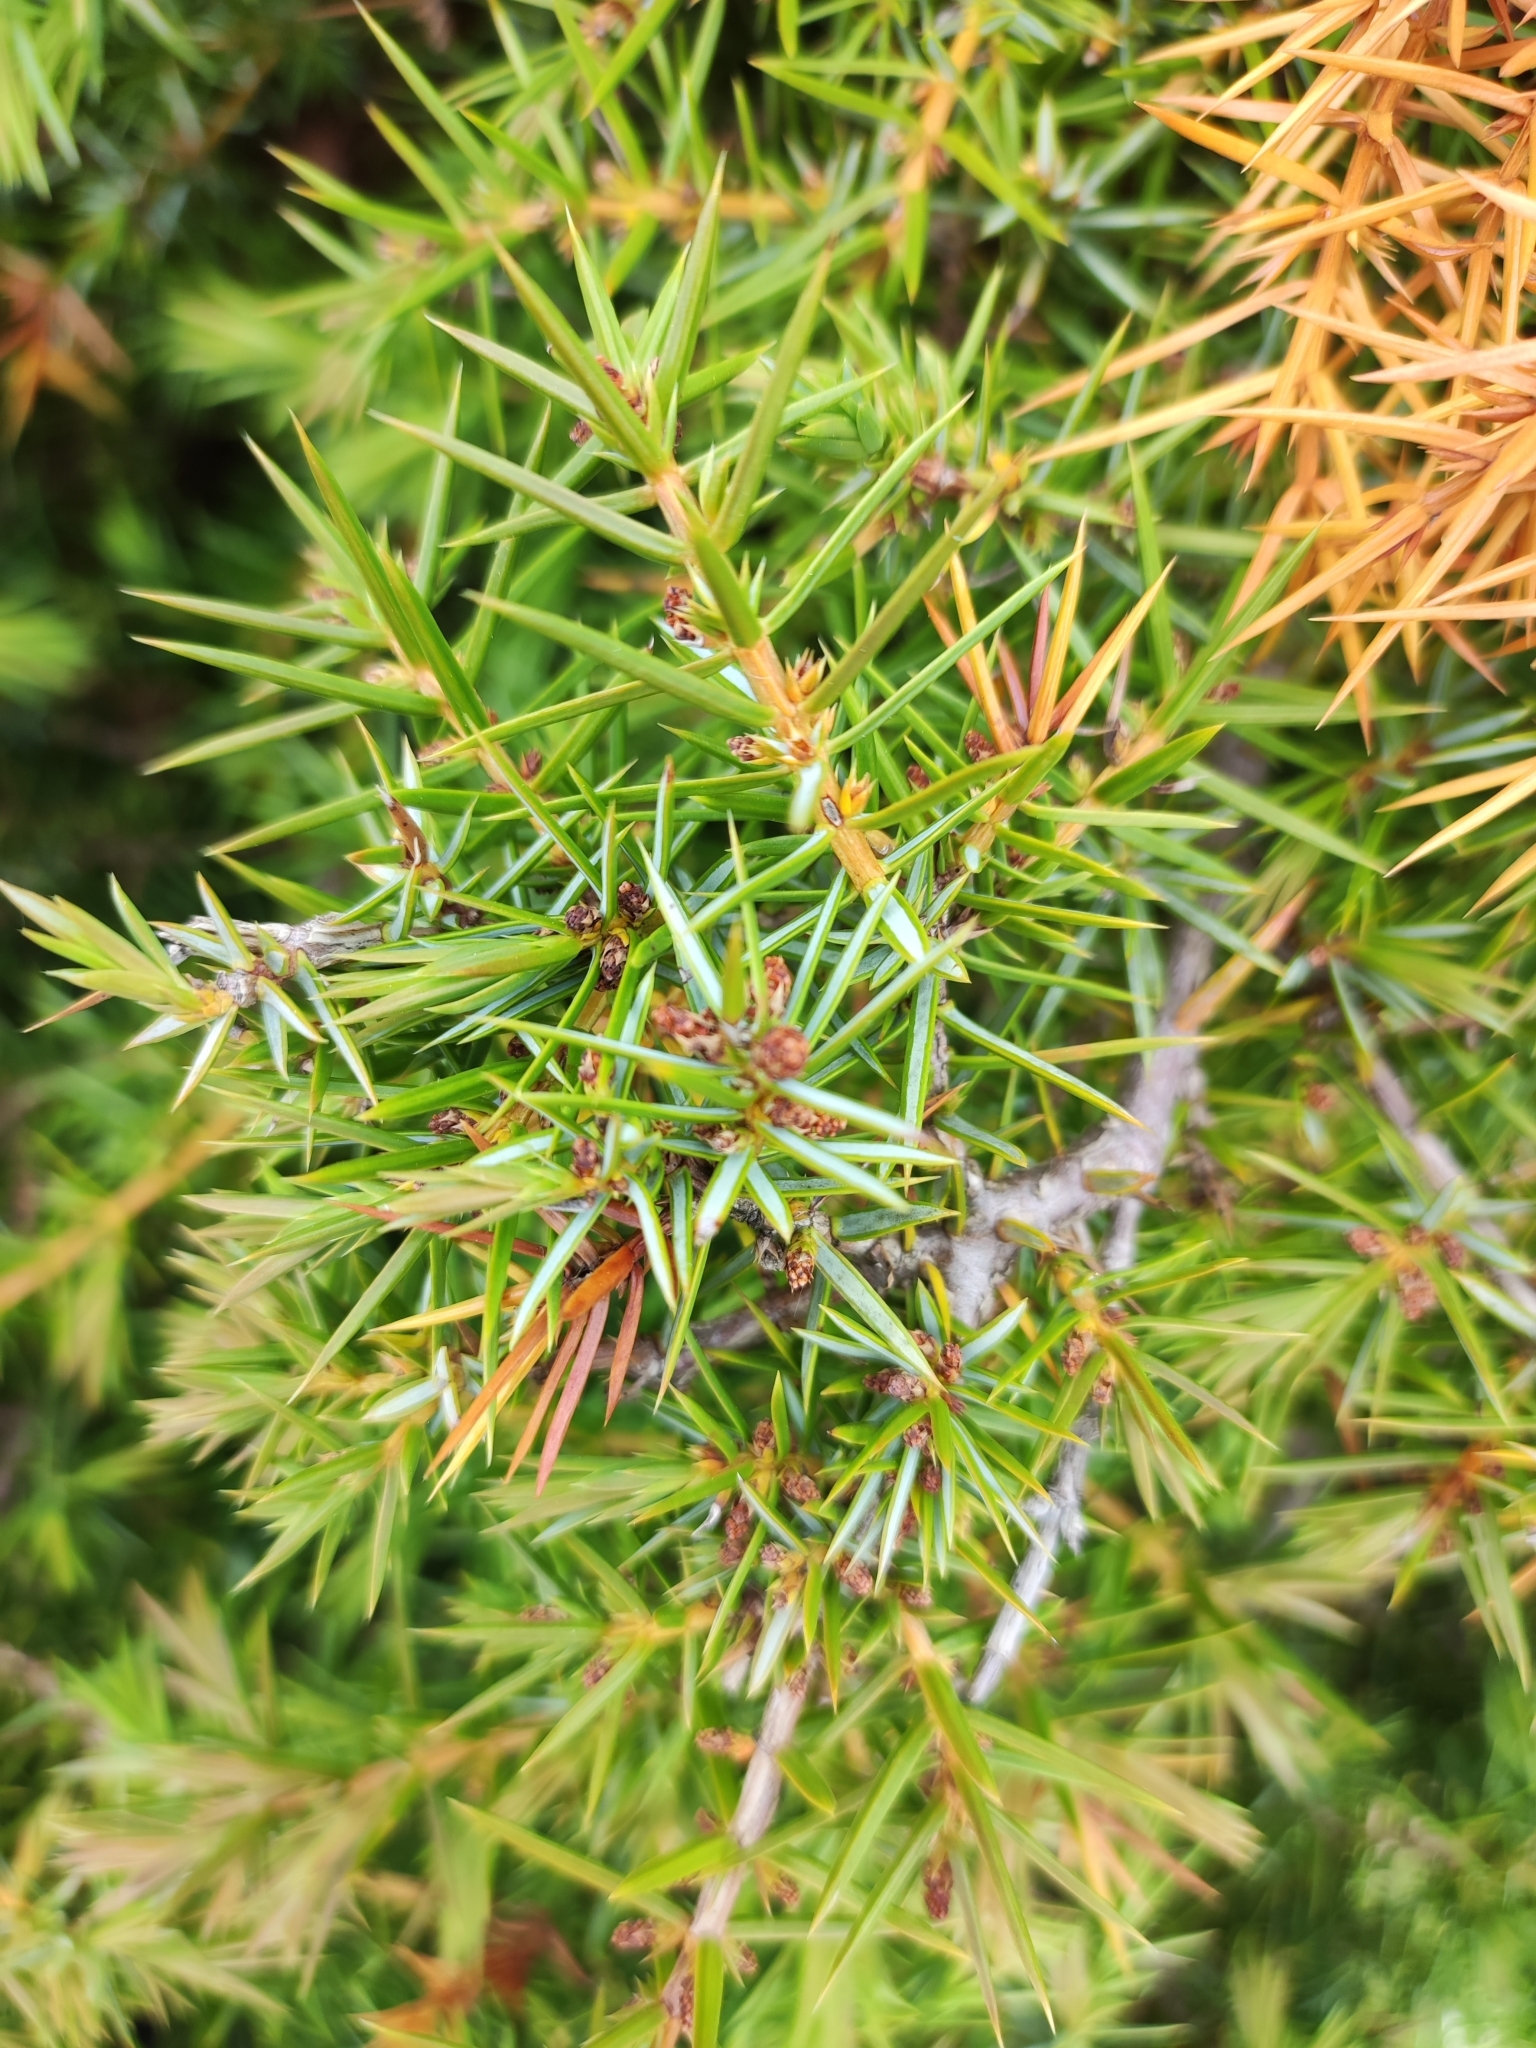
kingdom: Plantae
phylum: Tracheophyta
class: Pinopsida
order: Pinales
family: Cupressaceae
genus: Juniperus
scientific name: Juniperus communis
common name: Common juniper
